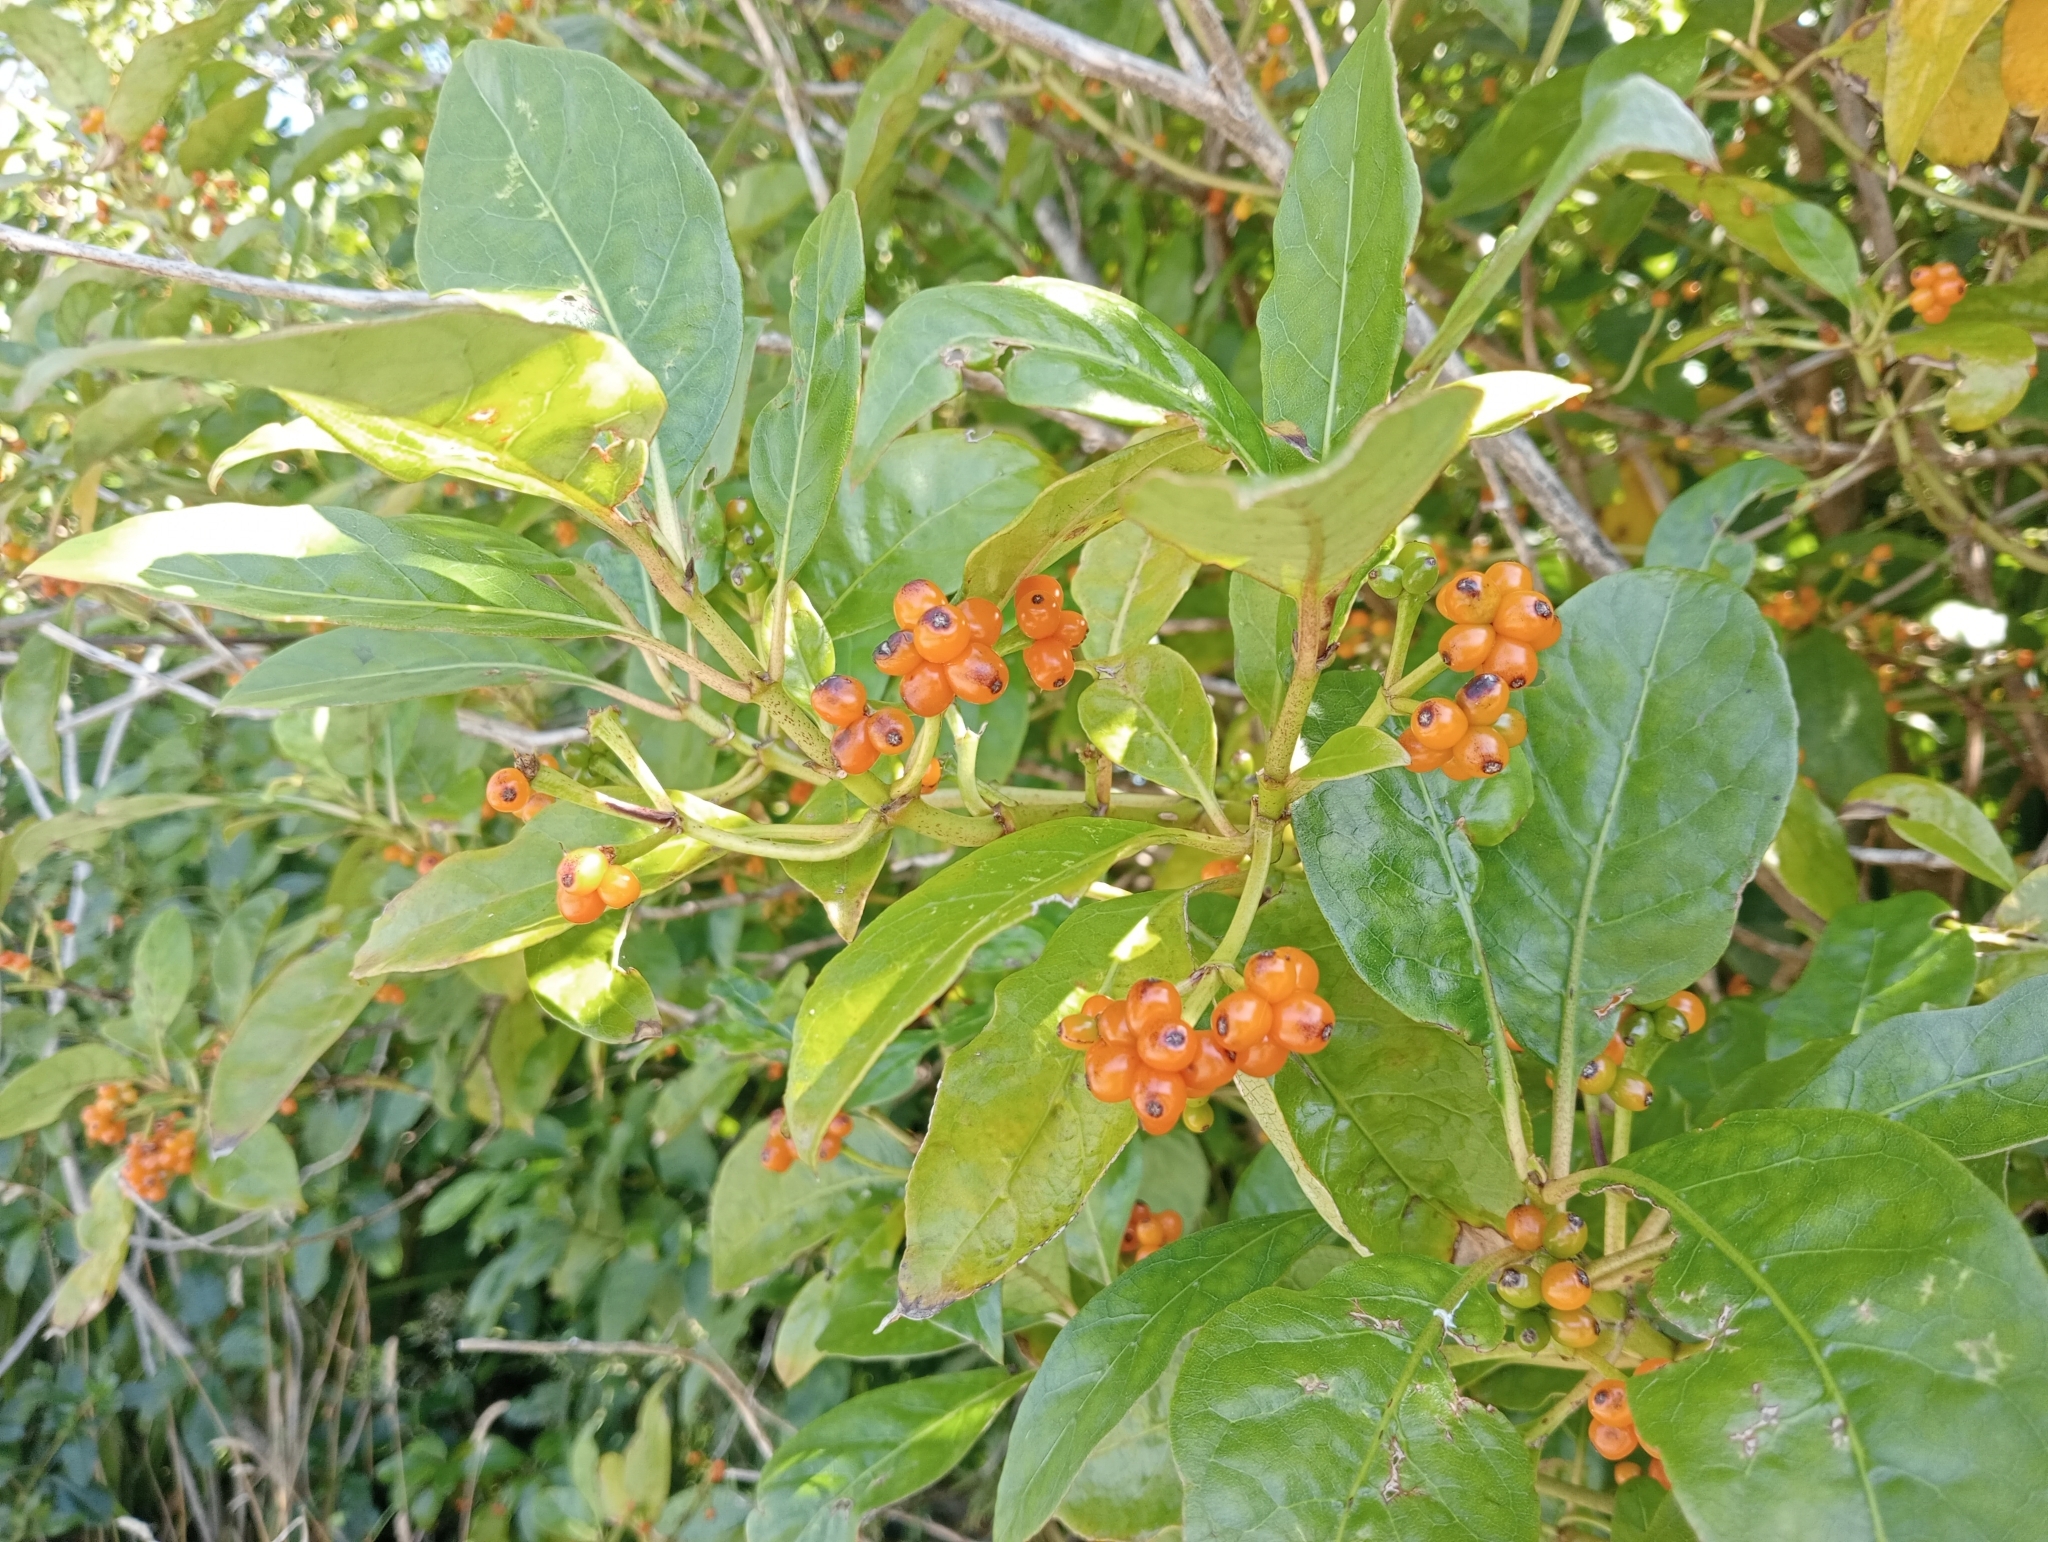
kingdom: Plantae
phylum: Tracheophyta
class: Magnoliopsida
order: Gentianales
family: Rubiaceae
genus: Coprosma
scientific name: Coprosma autumnalis
